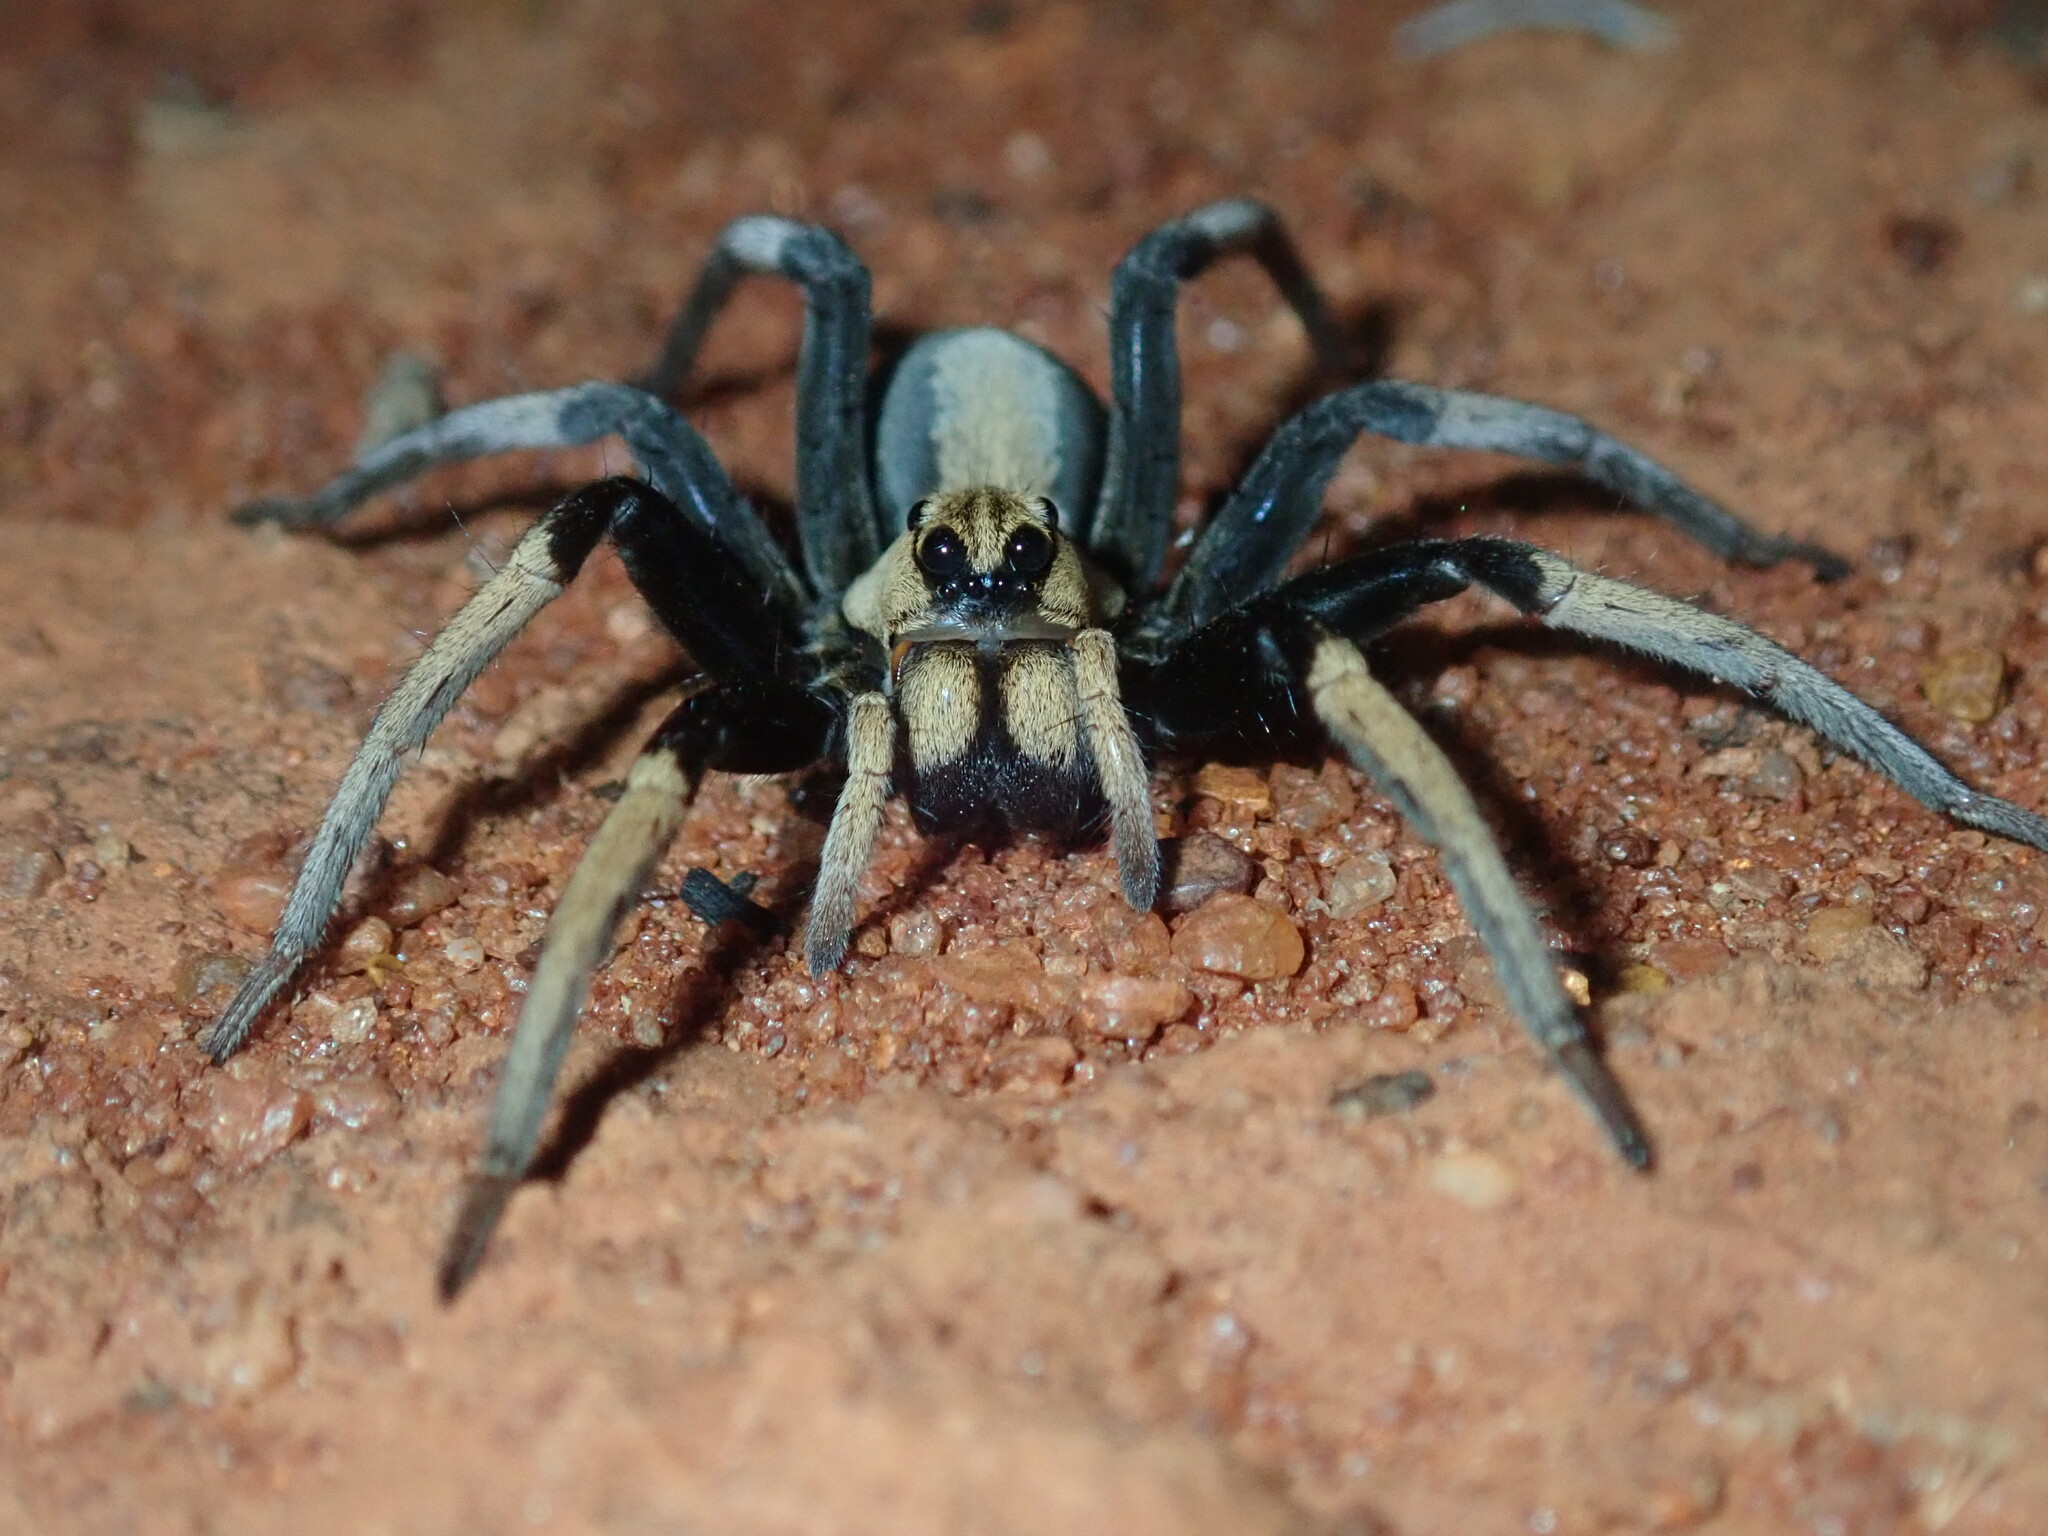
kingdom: Animalia
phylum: Arthropoda
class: Arachnida
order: Araneae
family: Lycosidae
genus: Hoggicosa
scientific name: Hoggicosa bicolor
